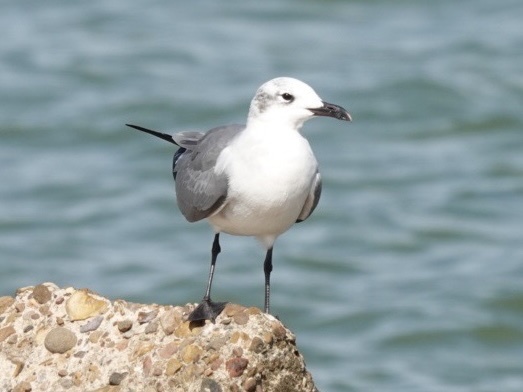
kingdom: Animalia
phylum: Chordata
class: Aves
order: Charadriiformes
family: Laridae
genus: Leucophaeus
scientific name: Leucophaeus atricilla
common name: Laughing gull
